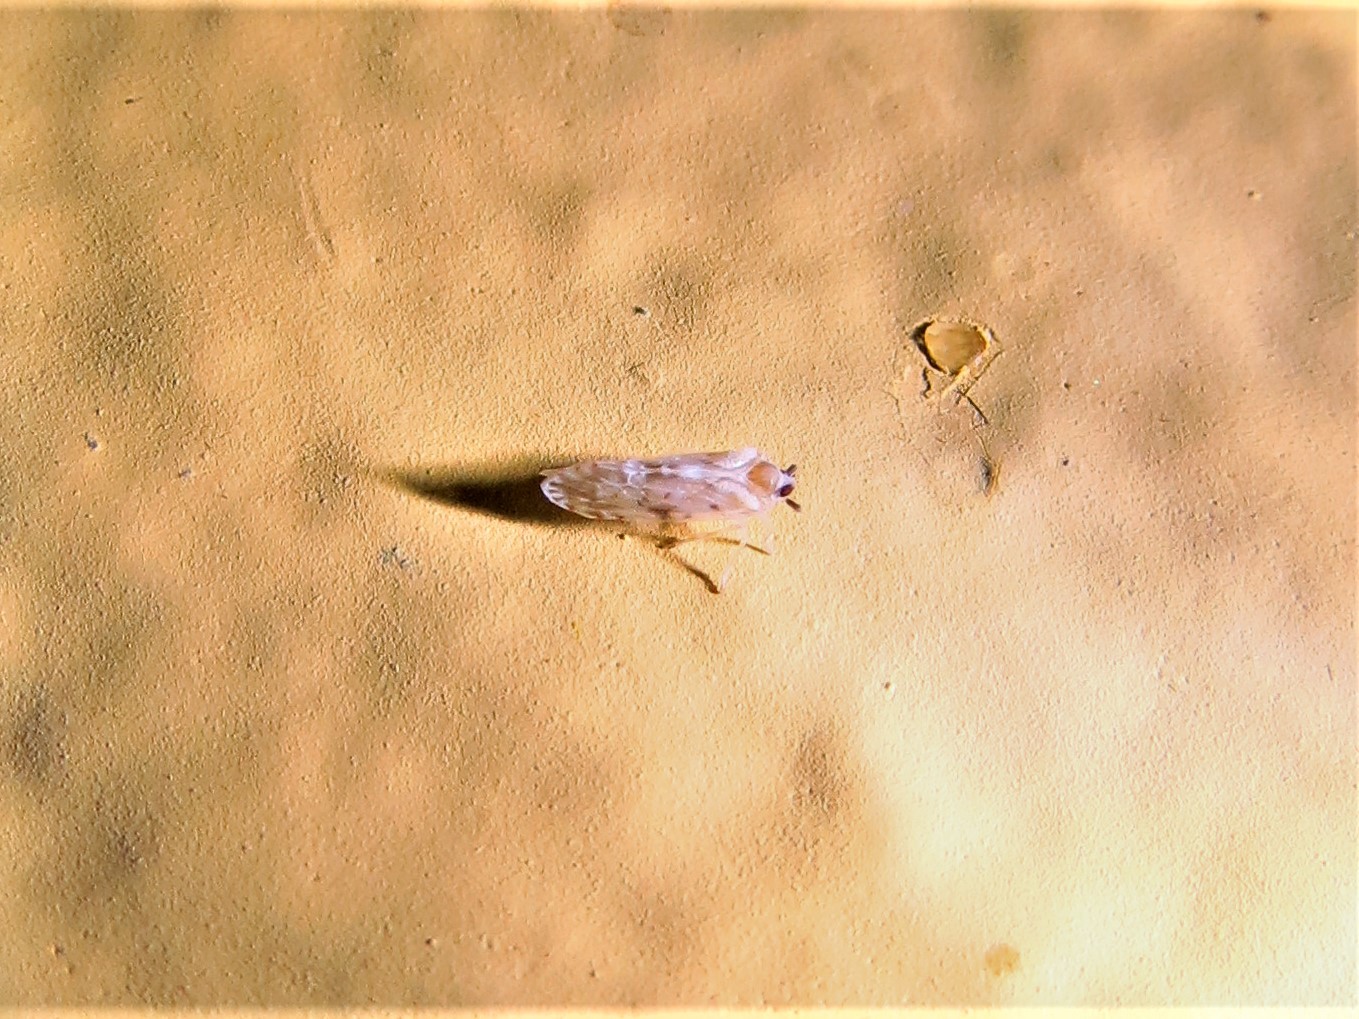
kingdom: Animalia
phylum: Arthropoda
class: Insecta
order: Hemiptera
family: Derbidae
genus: Patara
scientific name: Patara guttata
